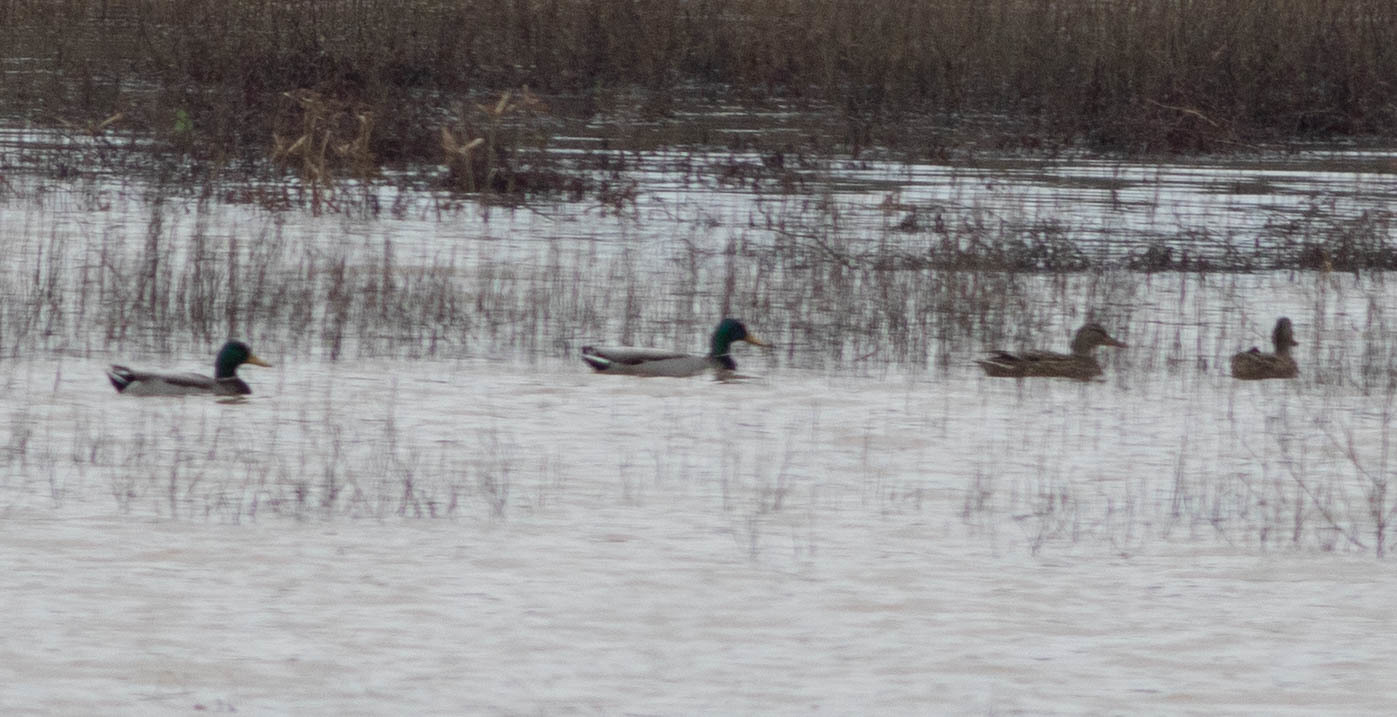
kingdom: Animalia
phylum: Chordata
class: Aves
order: Anseriformes
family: Anatidae
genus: Anas
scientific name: Anas platyrhynchos
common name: Mallard
